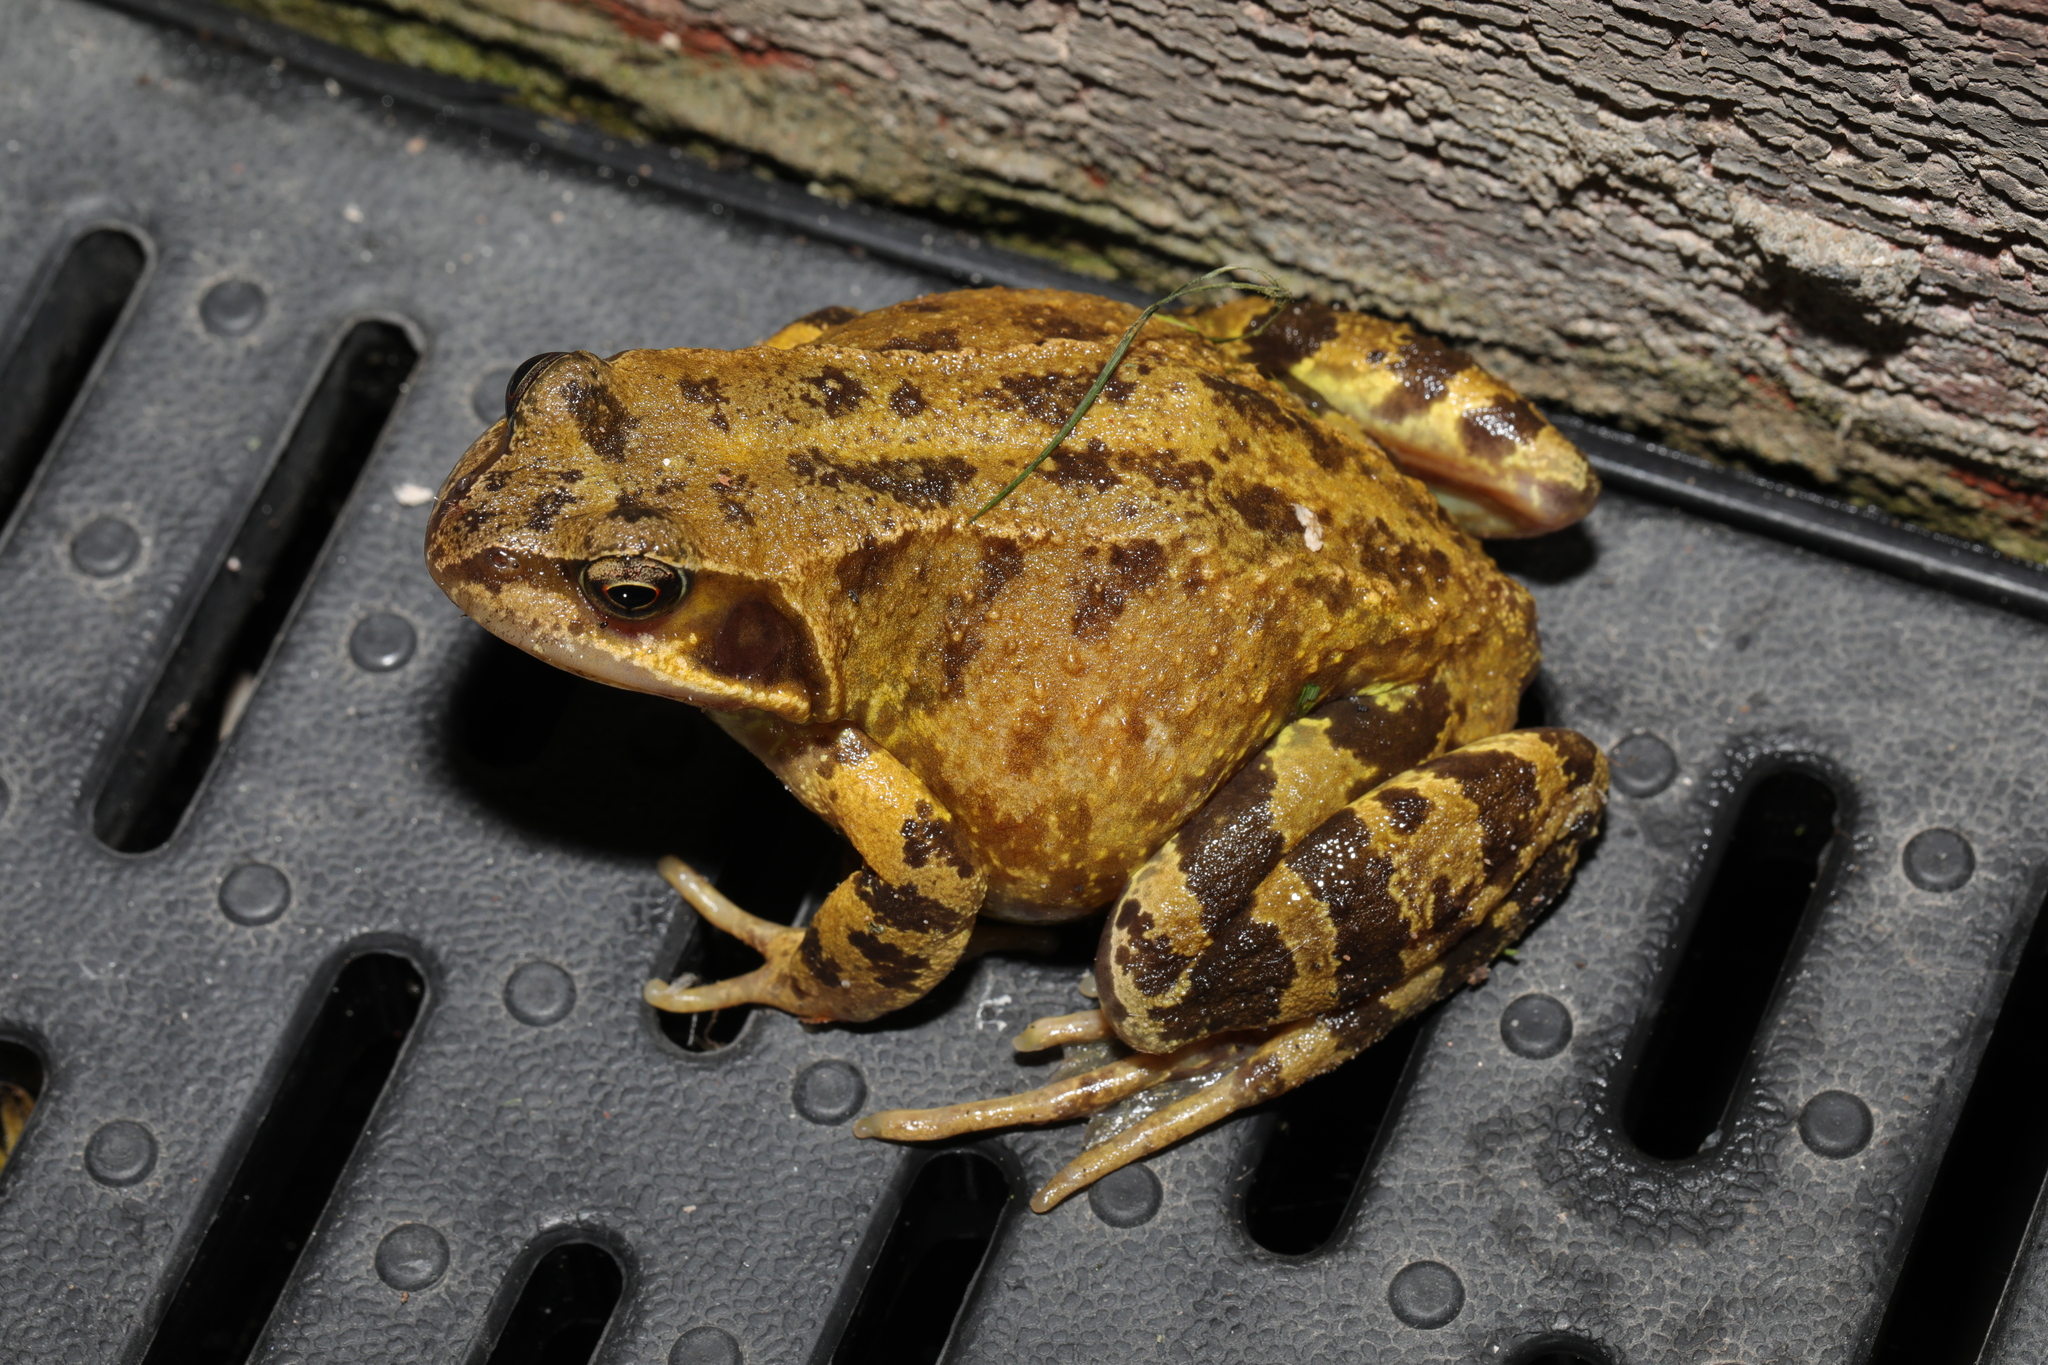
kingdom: Animalia
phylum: Chordata
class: Amphibia
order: Anura
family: Ranidae
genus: Rana
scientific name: Rana temporaria
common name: Common frog
